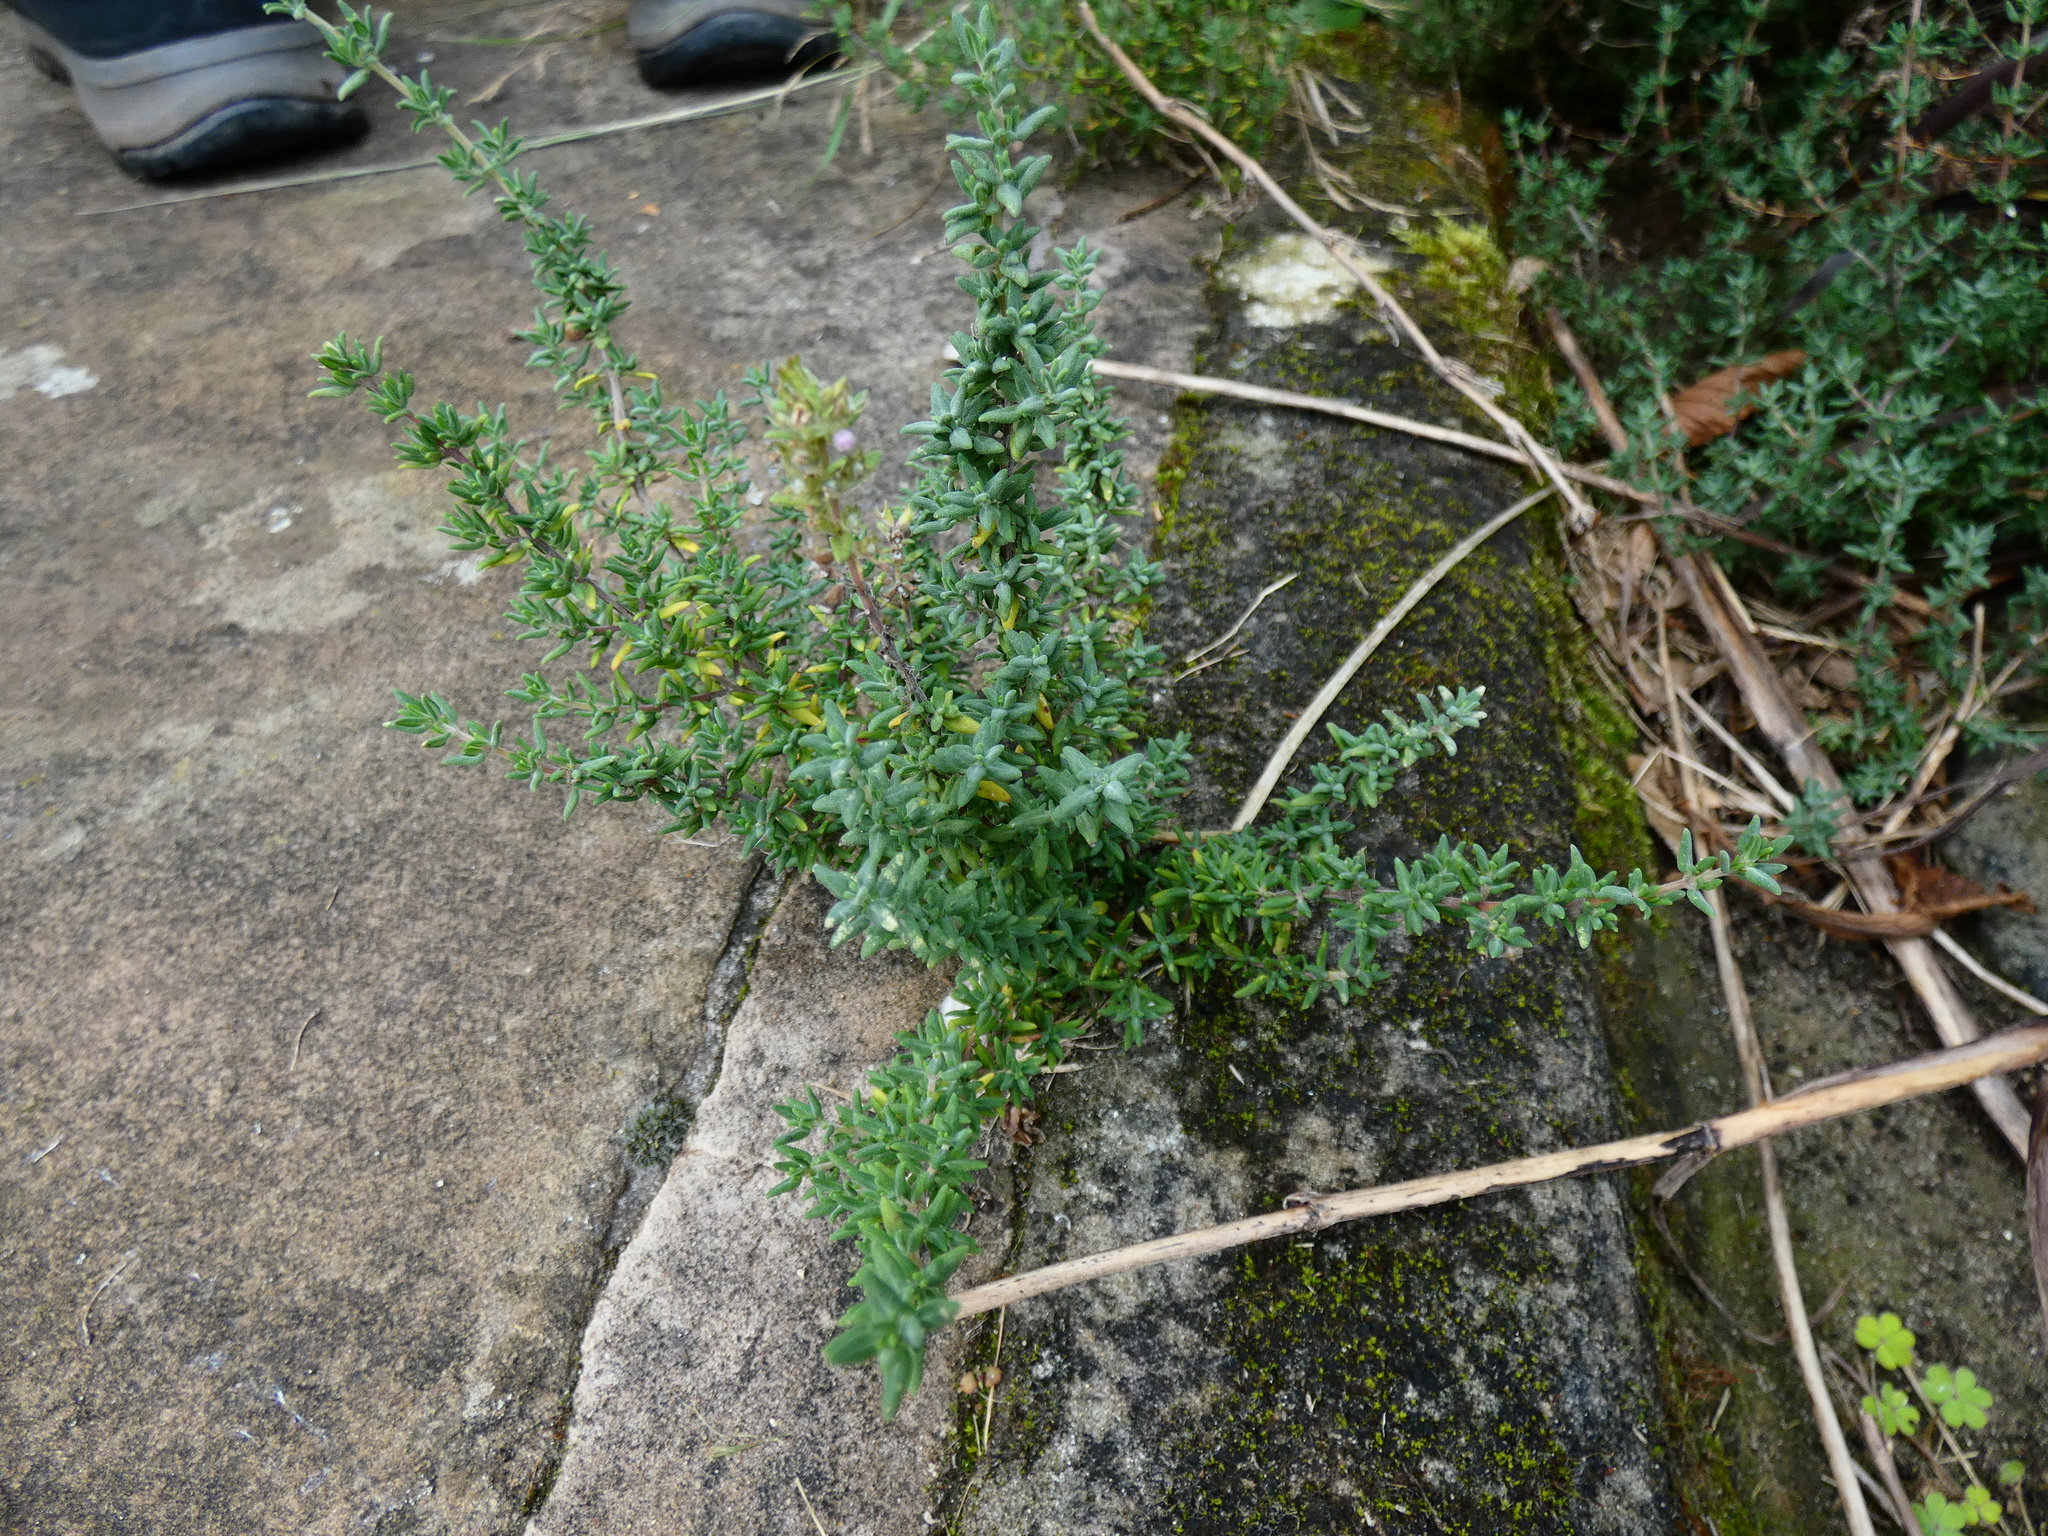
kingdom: Plantae
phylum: Tracheophyta
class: Magnoliopsida
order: Lamiales
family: Lamiaceae
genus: Thymus
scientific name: Thymus vulgaris
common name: Garden thyme
